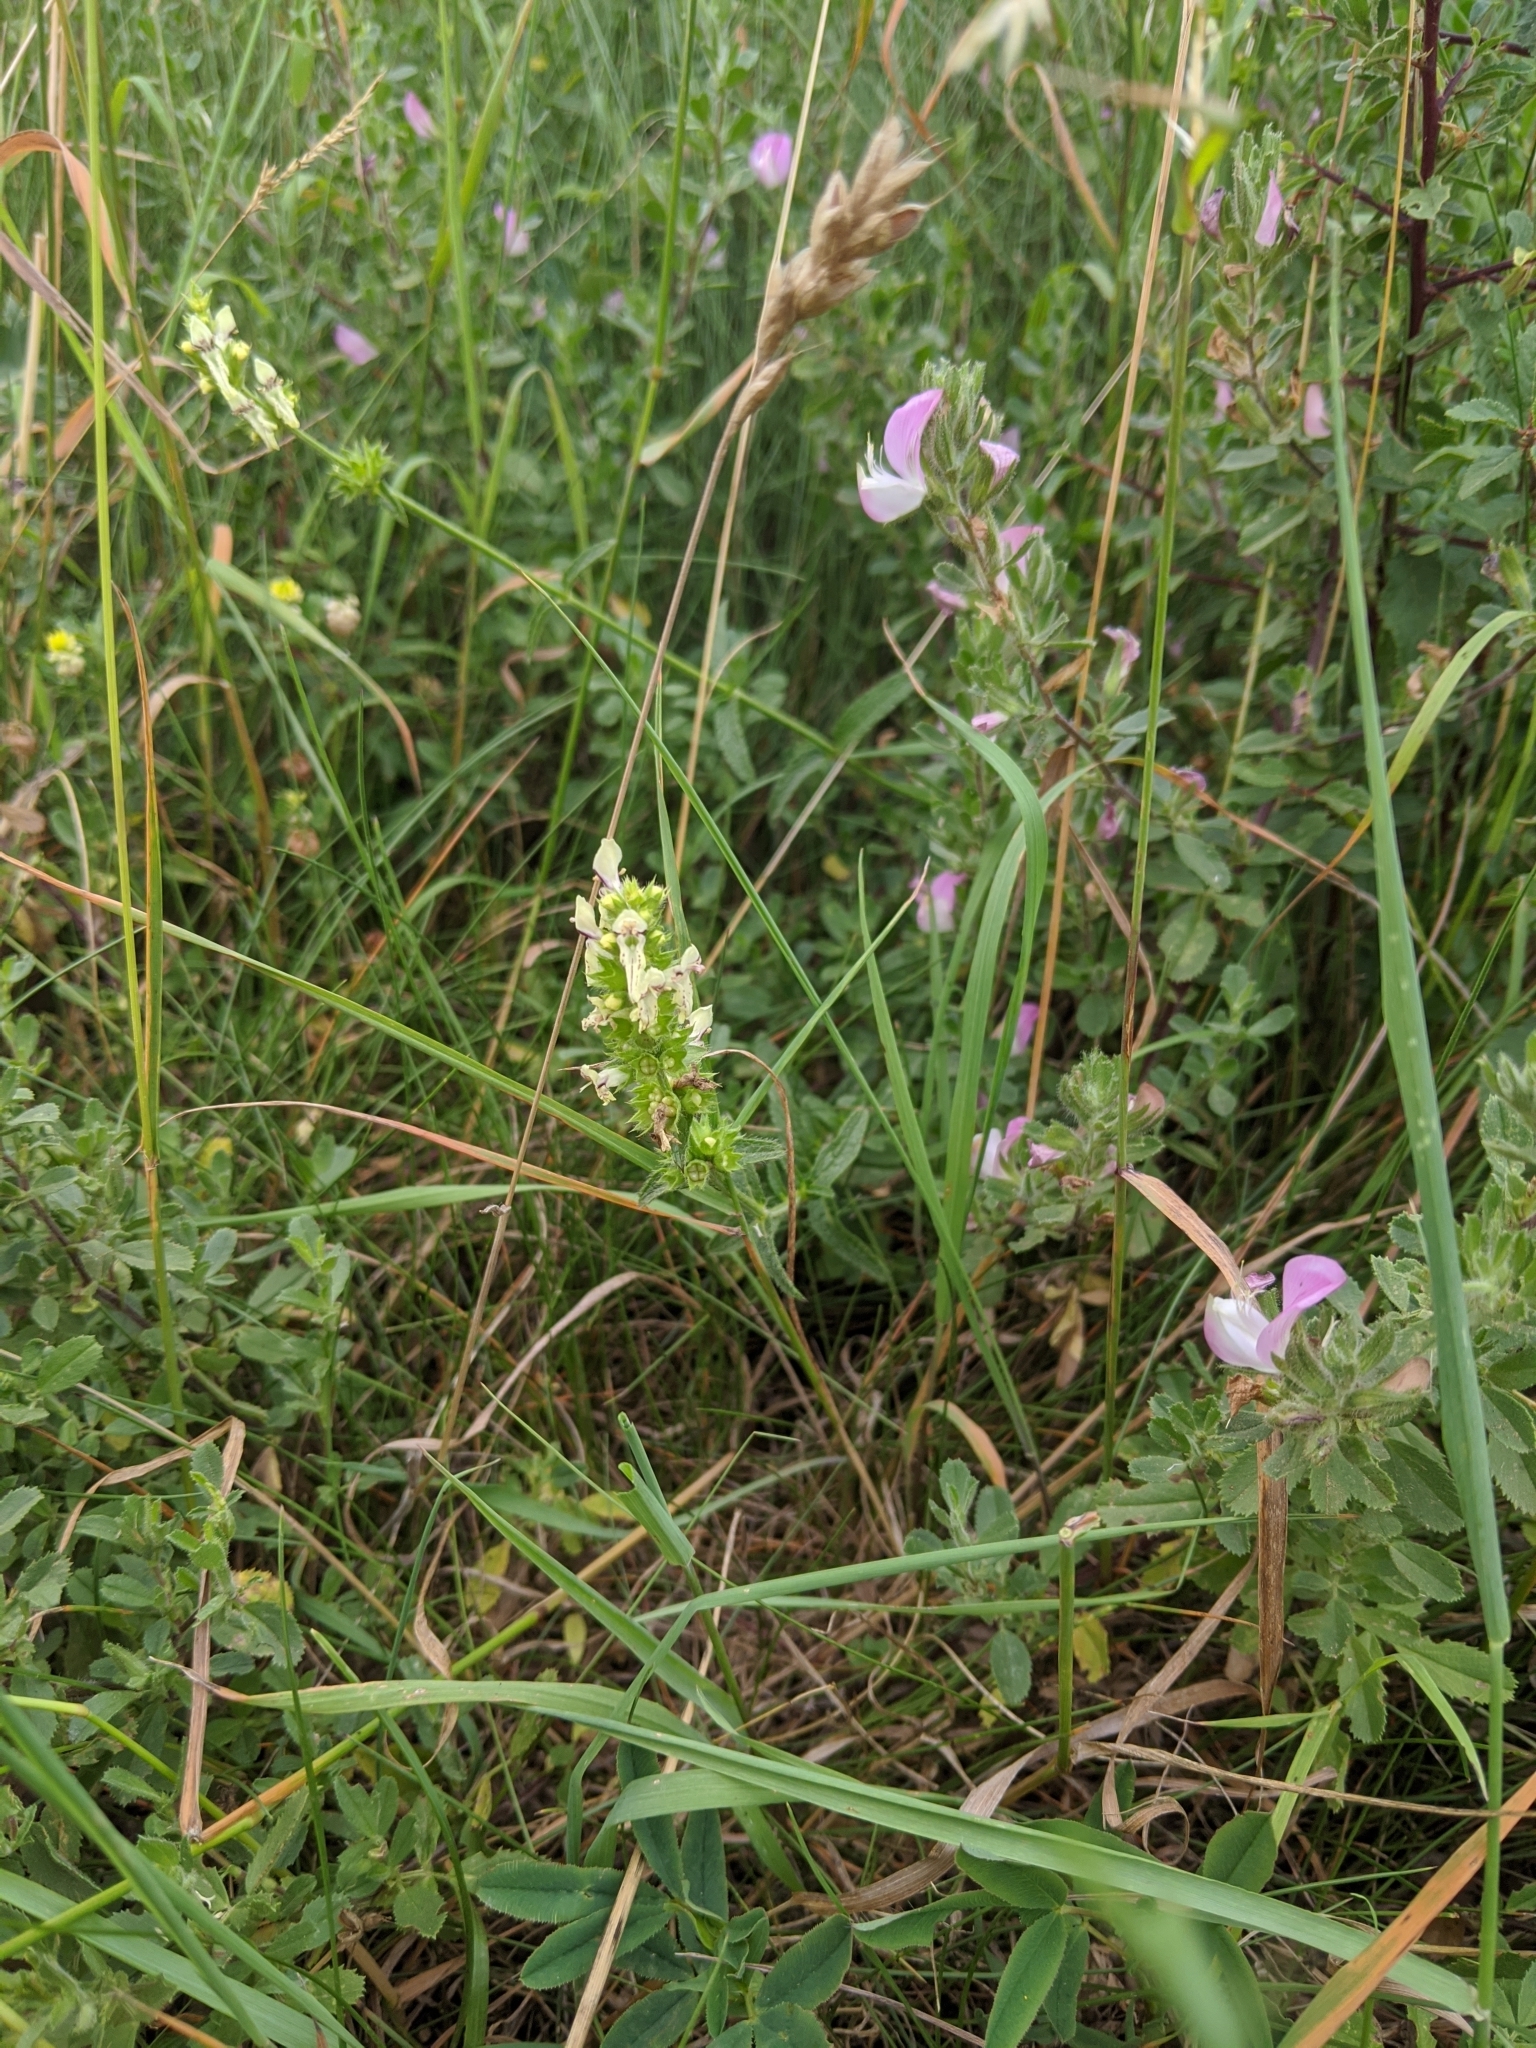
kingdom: Plantae
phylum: Tracheophyta
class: Magnoliopsida
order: Lamiales
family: Lamiaceae
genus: Stachys
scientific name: Stachys recta
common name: Perennial yellow-woundwort
